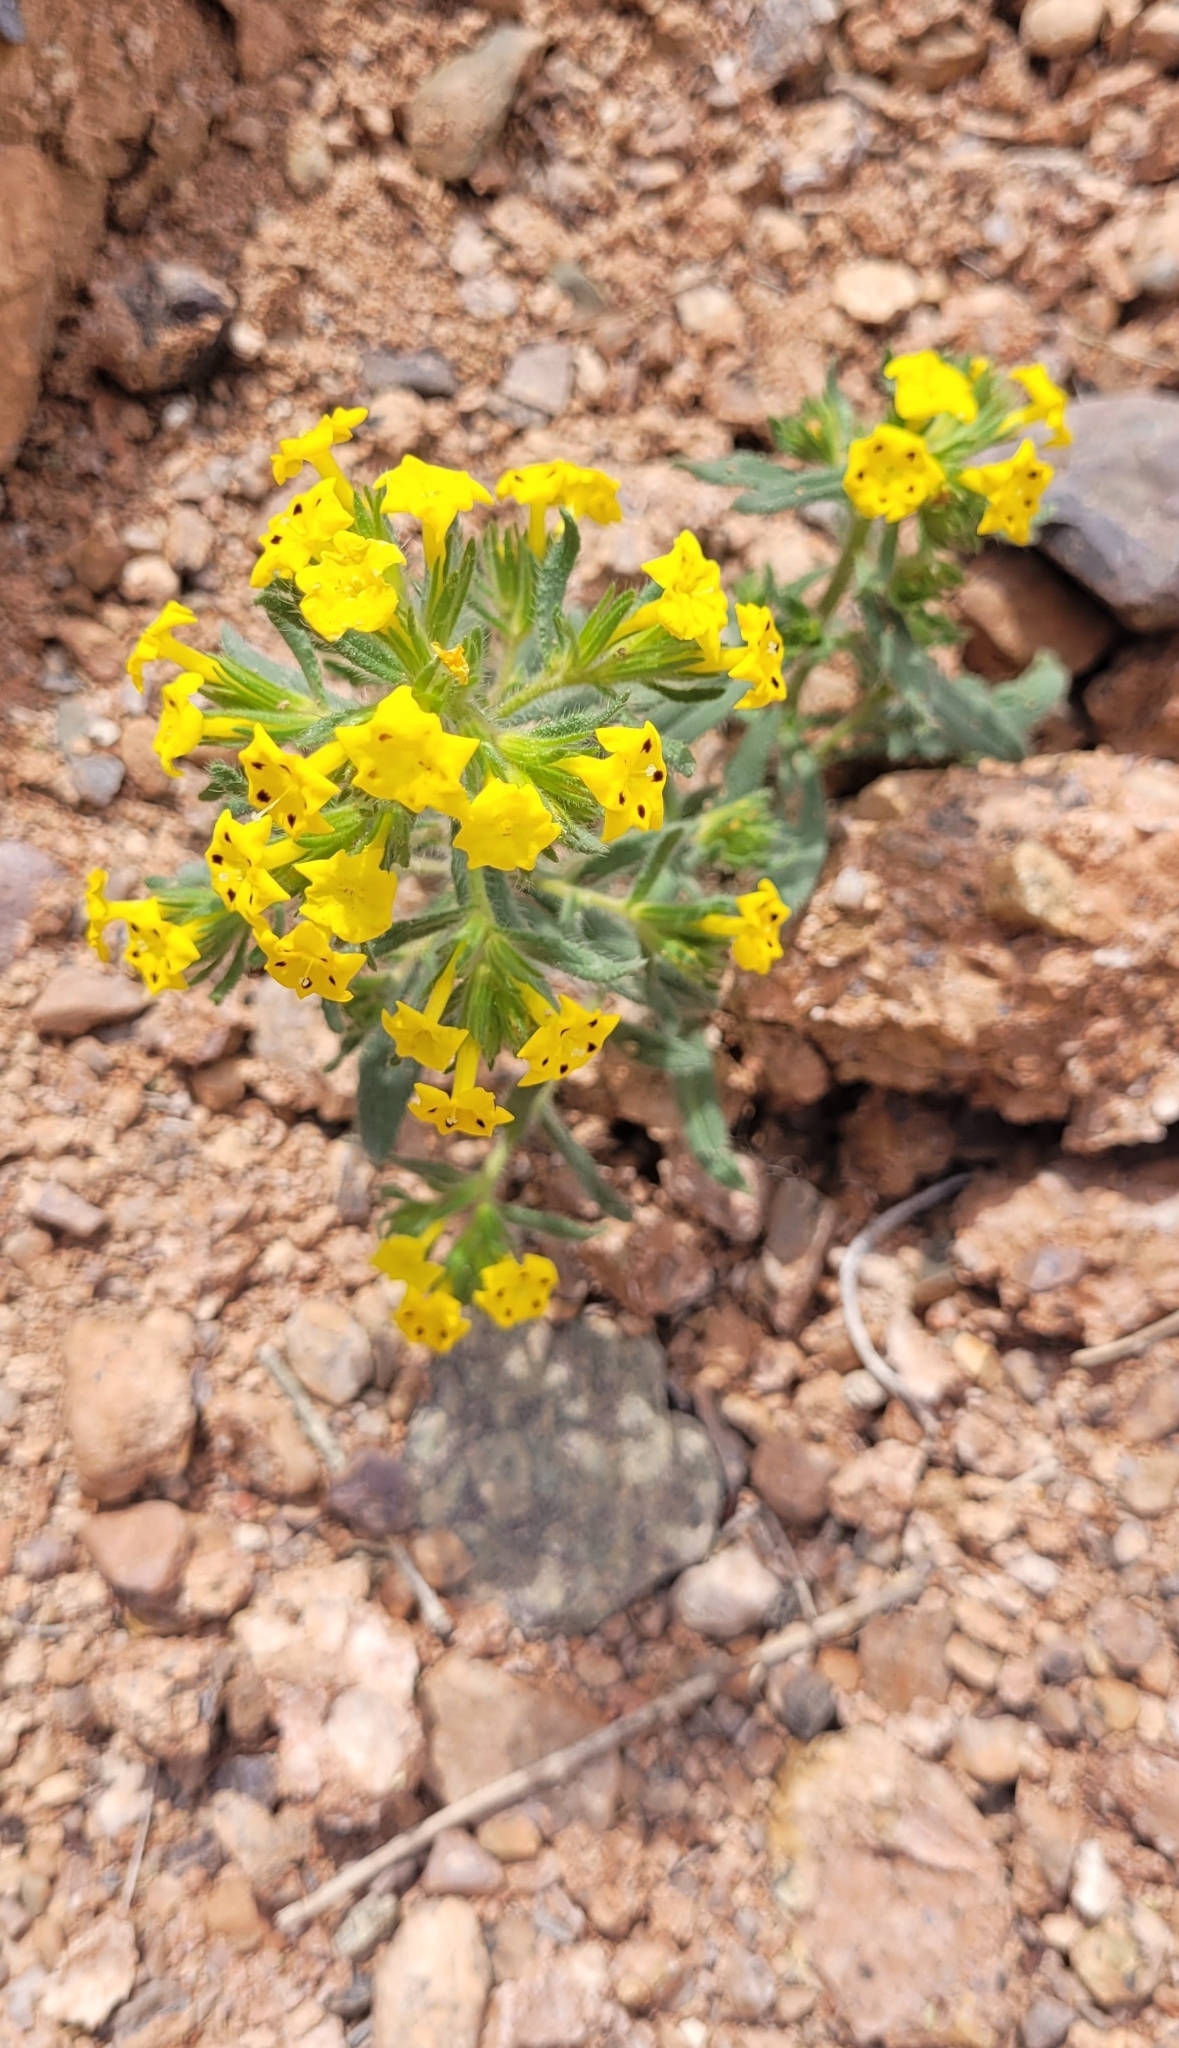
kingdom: Plantae
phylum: Tracheophyta
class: Magnoliopsida
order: Boraginales
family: Boraginaceae
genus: Arnebia
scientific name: Arnebia guttata
